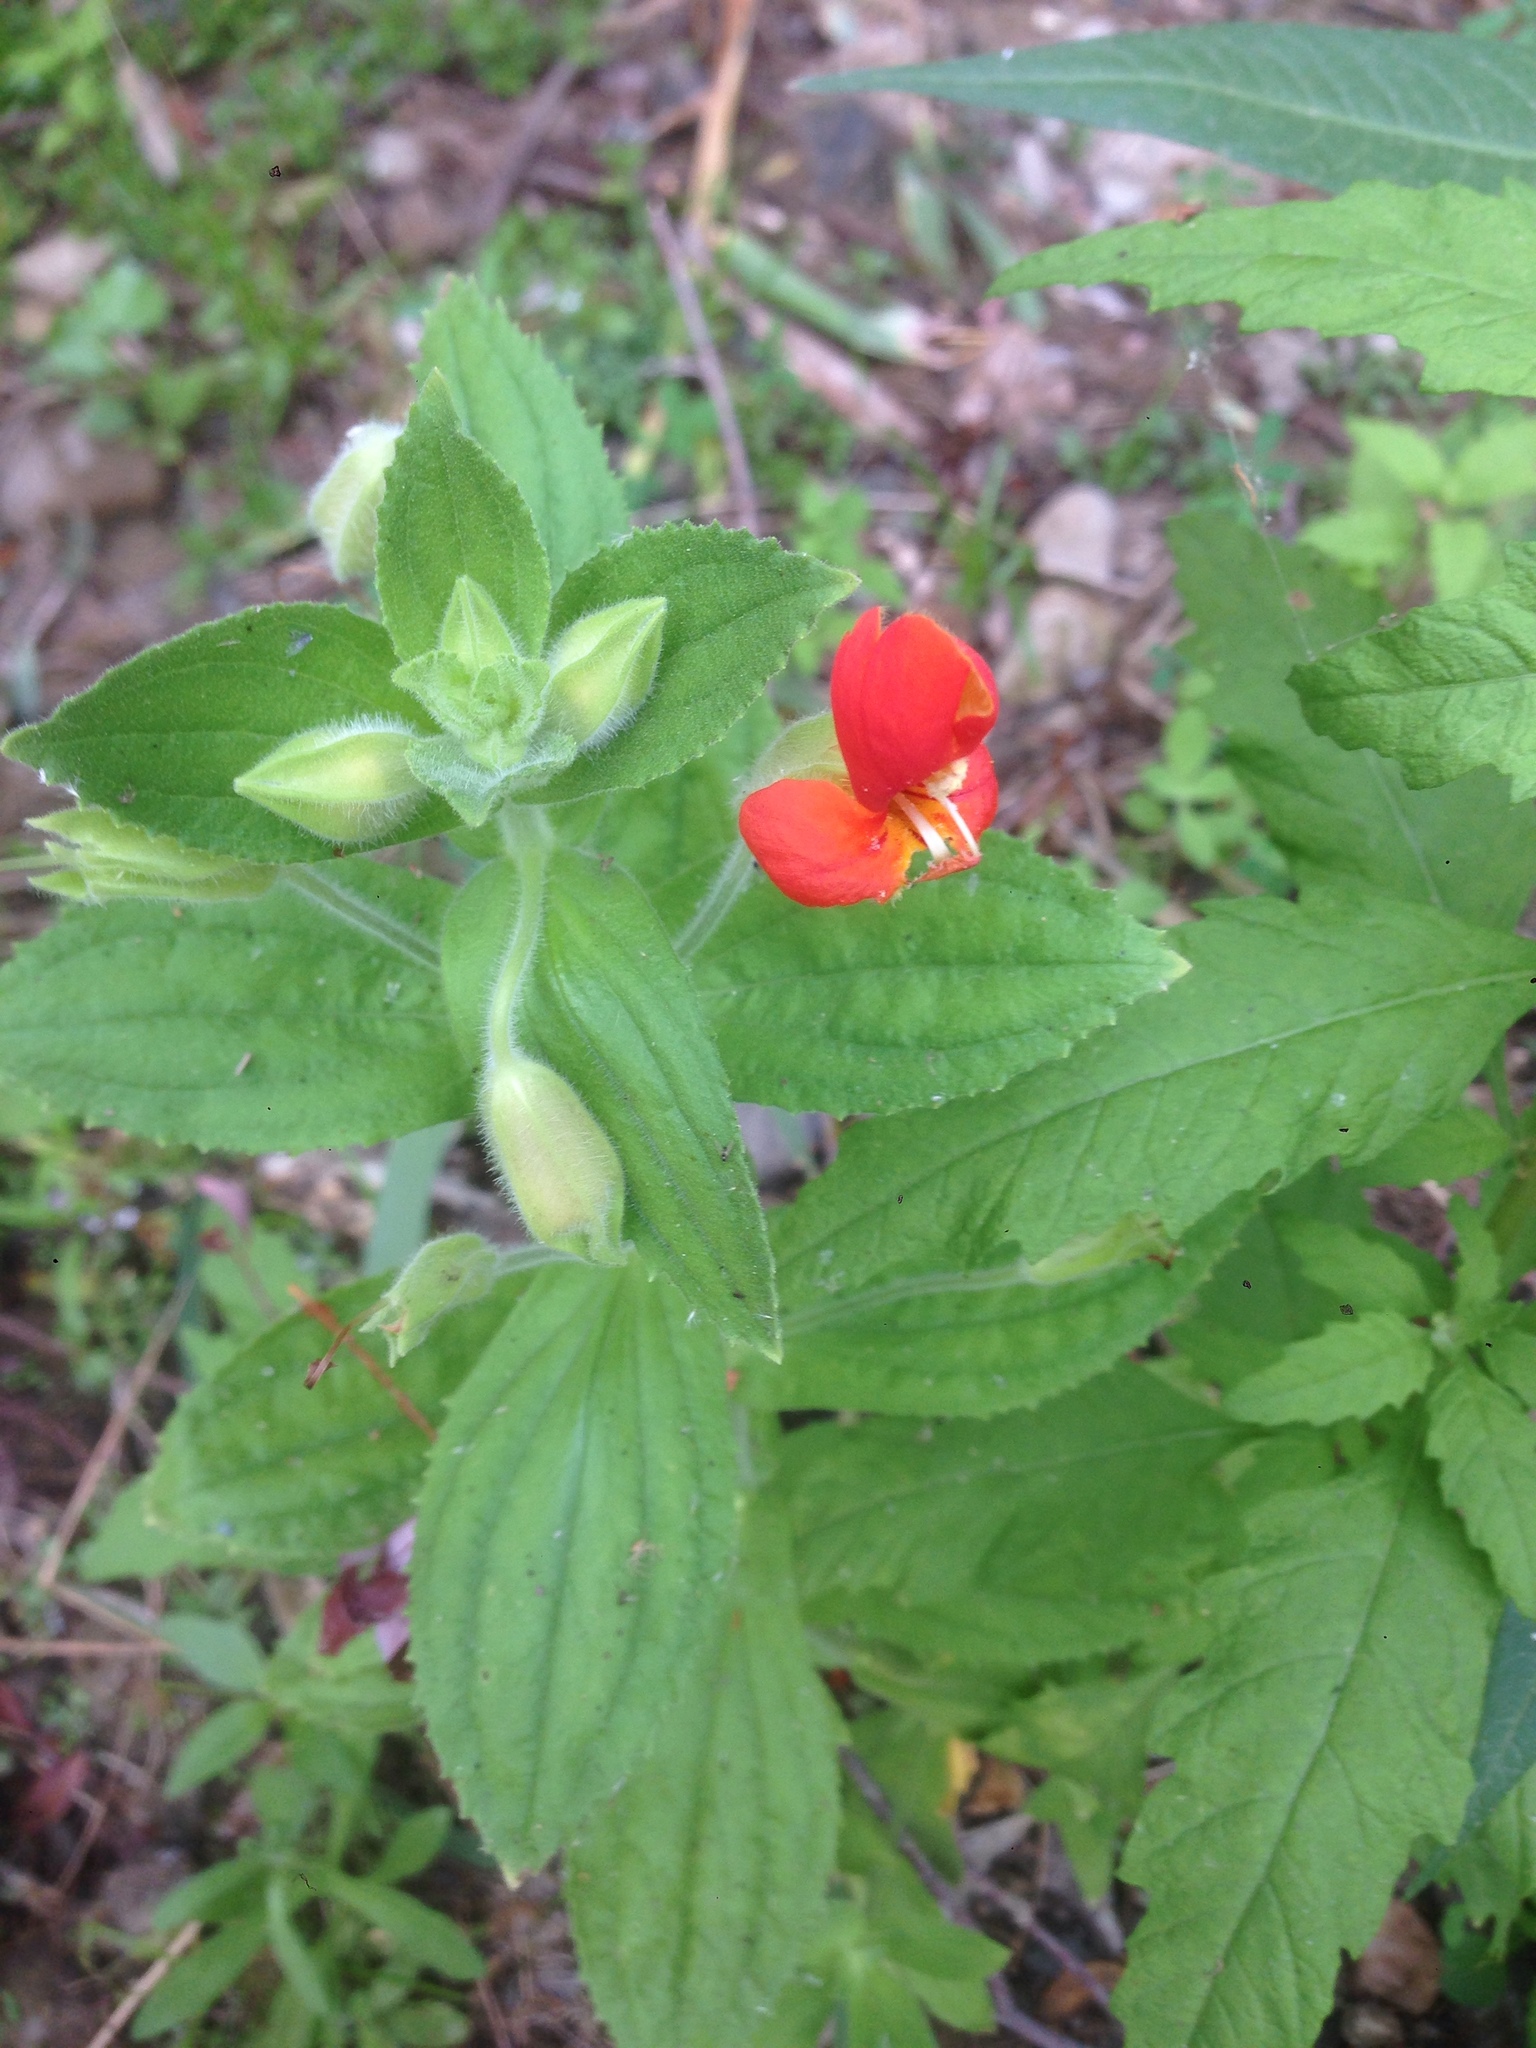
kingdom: Plantae
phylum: Tracheophyta
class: Magnoliopsida
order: Lamiales
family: Phrymaceae
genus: Erythranthe
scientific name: Erythranthe cardinalis
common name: Scarlet monkey-flower
